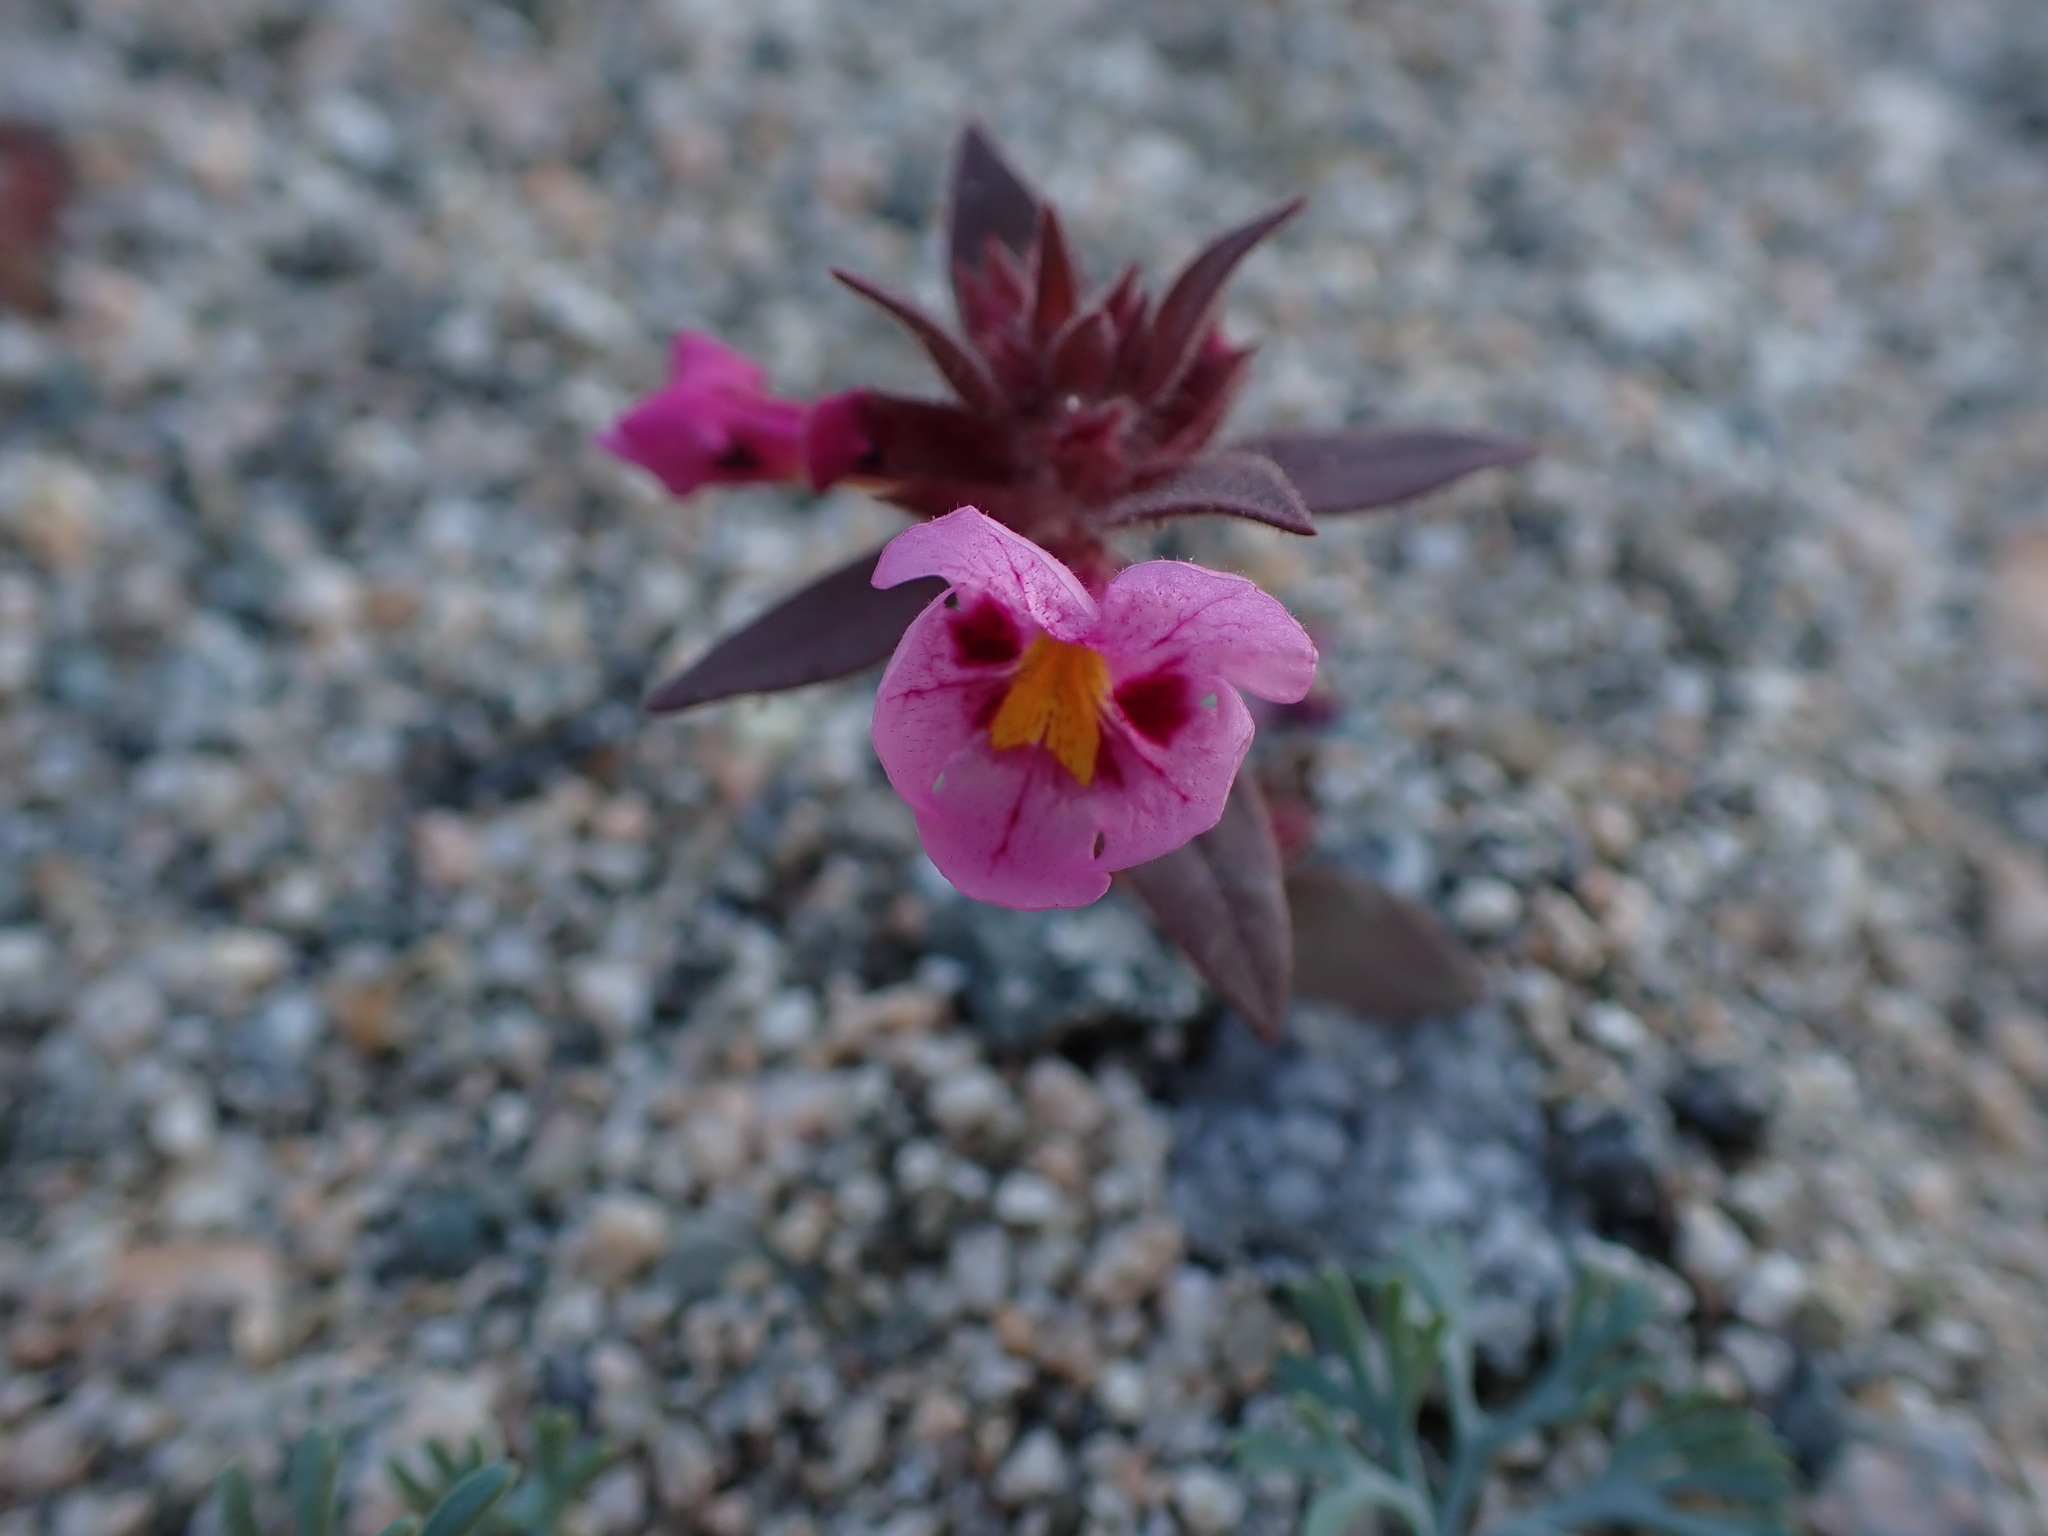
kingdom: Plantae
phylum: Tracheophyta
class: Magnoliopsida
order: Lamiales
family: Phrymaceae
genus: Diplacus
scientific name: Diplacus bigelovii
